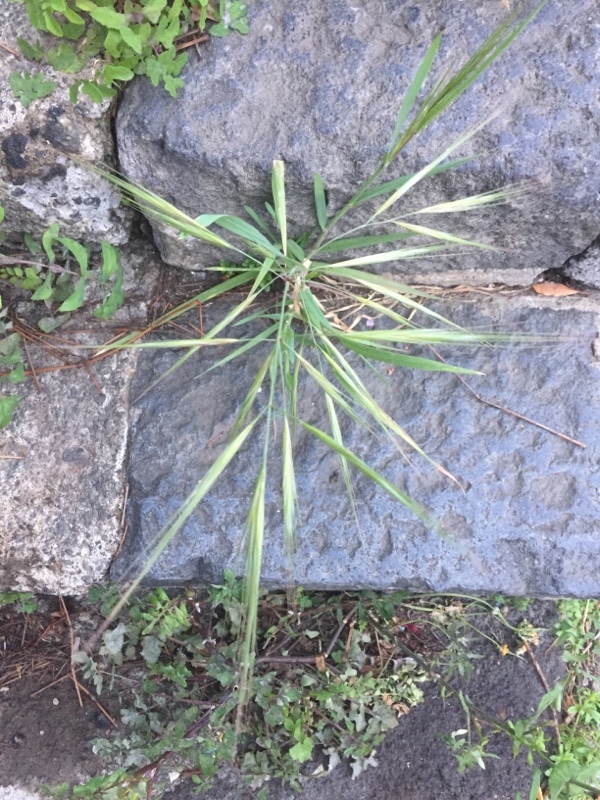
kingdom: Plantae
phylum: Tracheophyta
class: Liliopsida
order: Poales
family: Poaceae
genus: Bromus
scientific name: Bromus sterilis
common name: Poverty brome
